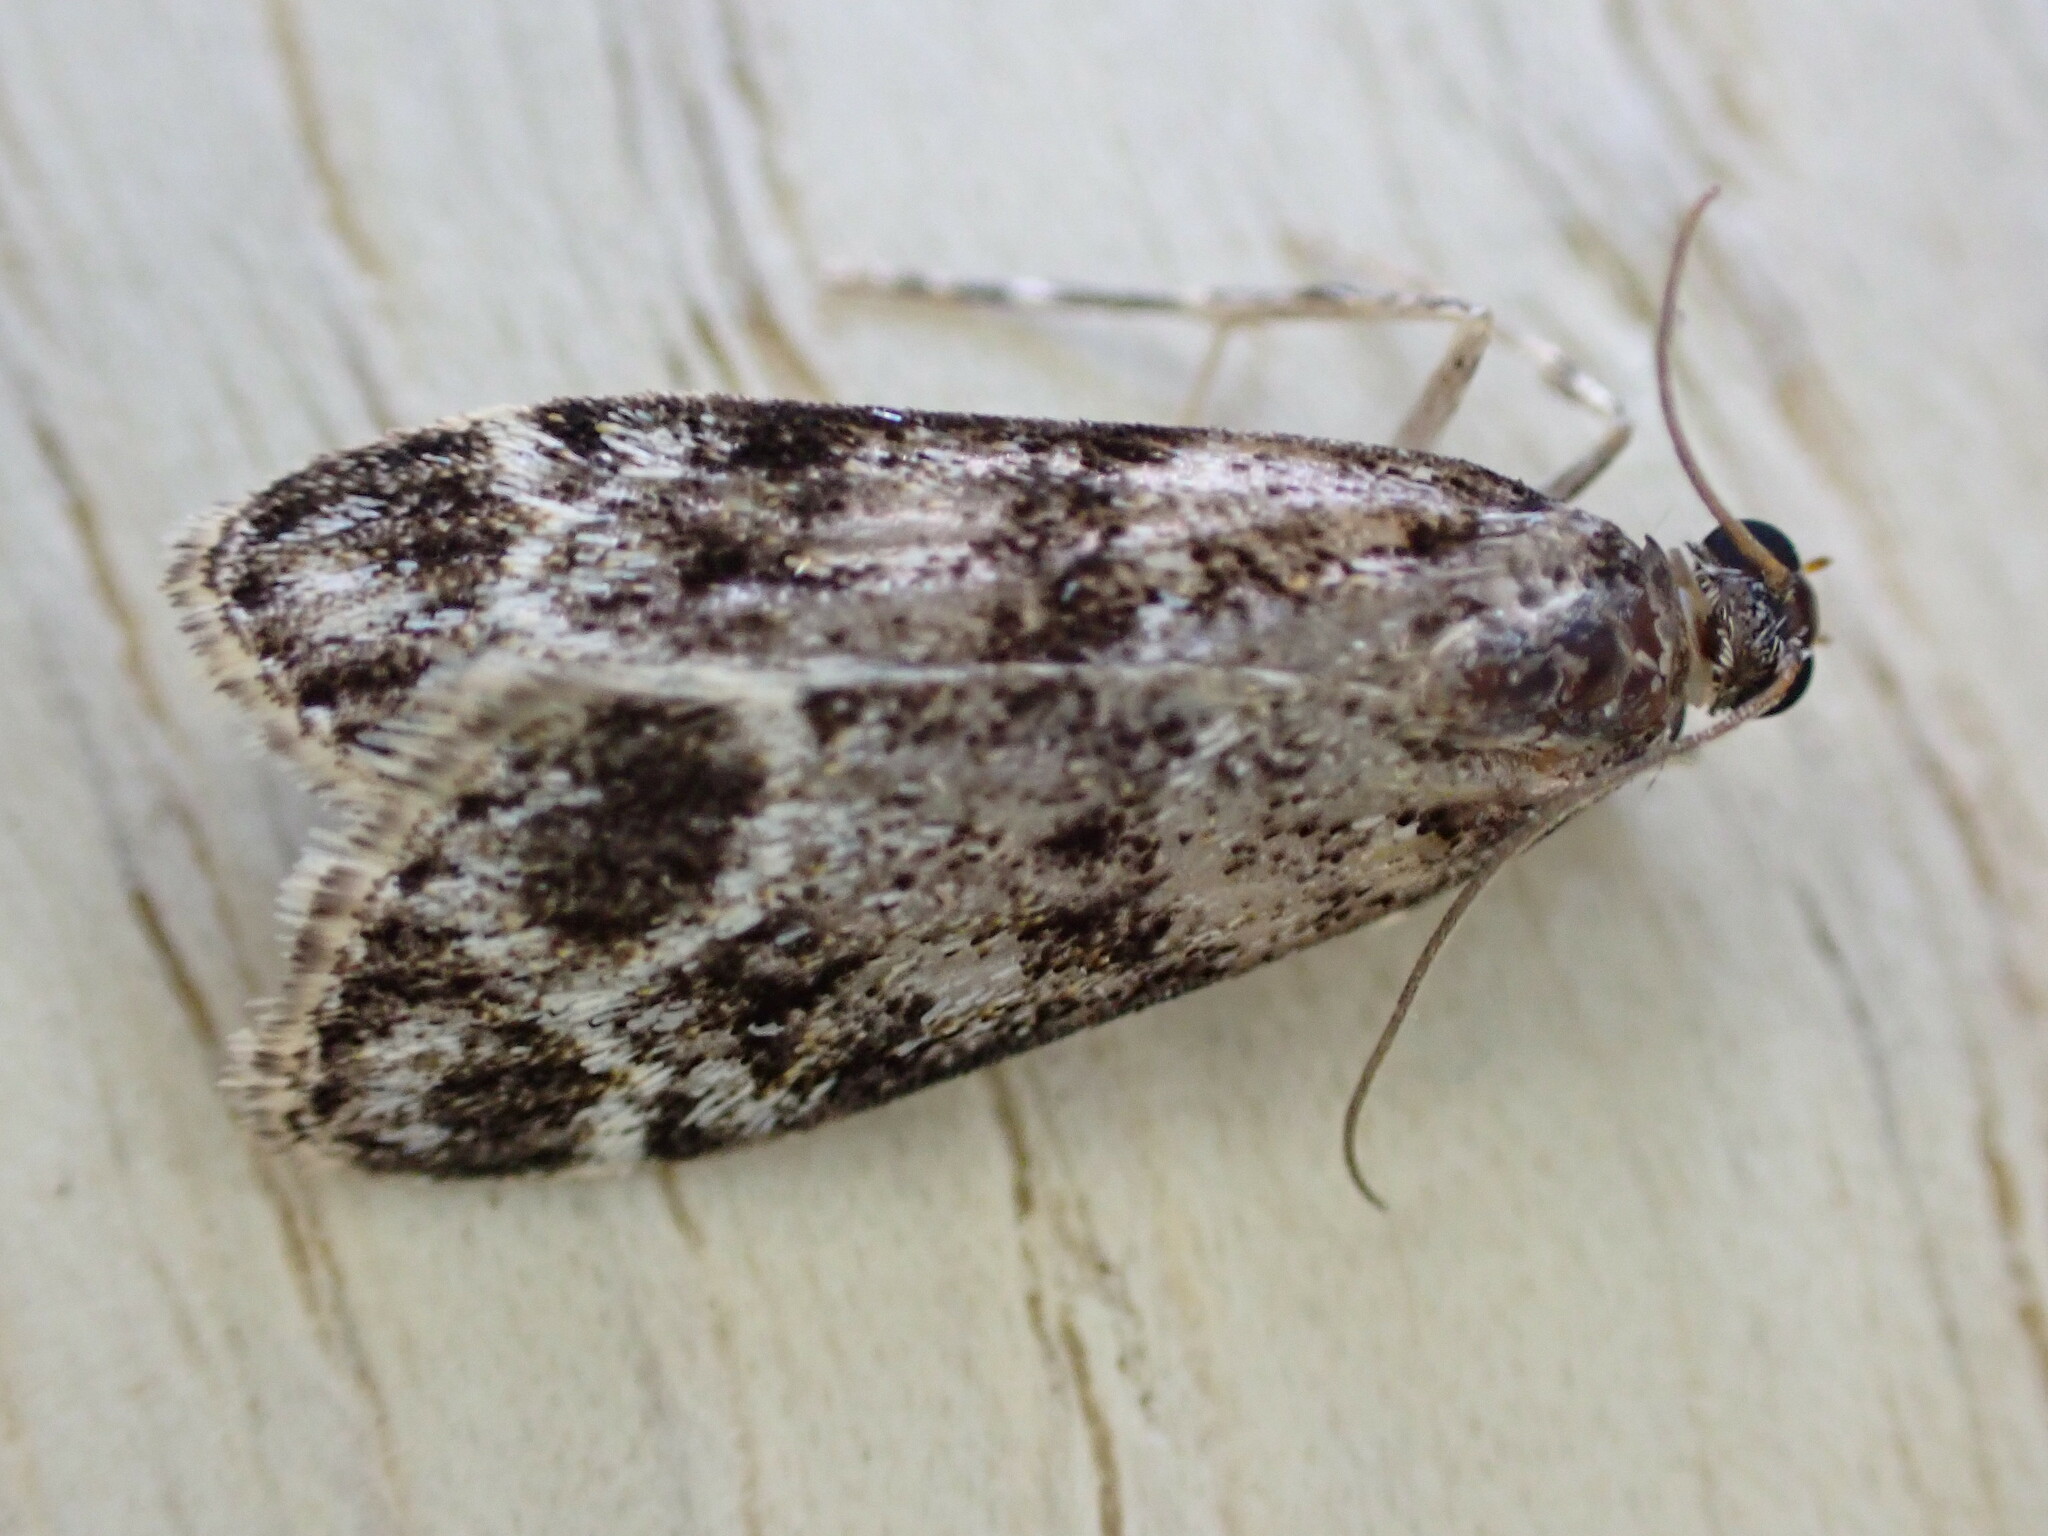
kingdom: Animalia
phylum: Arthropoda
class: Insecta
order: Lepidoptera
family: Crambidae
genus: Eudonia
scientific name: Eudonia mercurella
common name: Small grey
